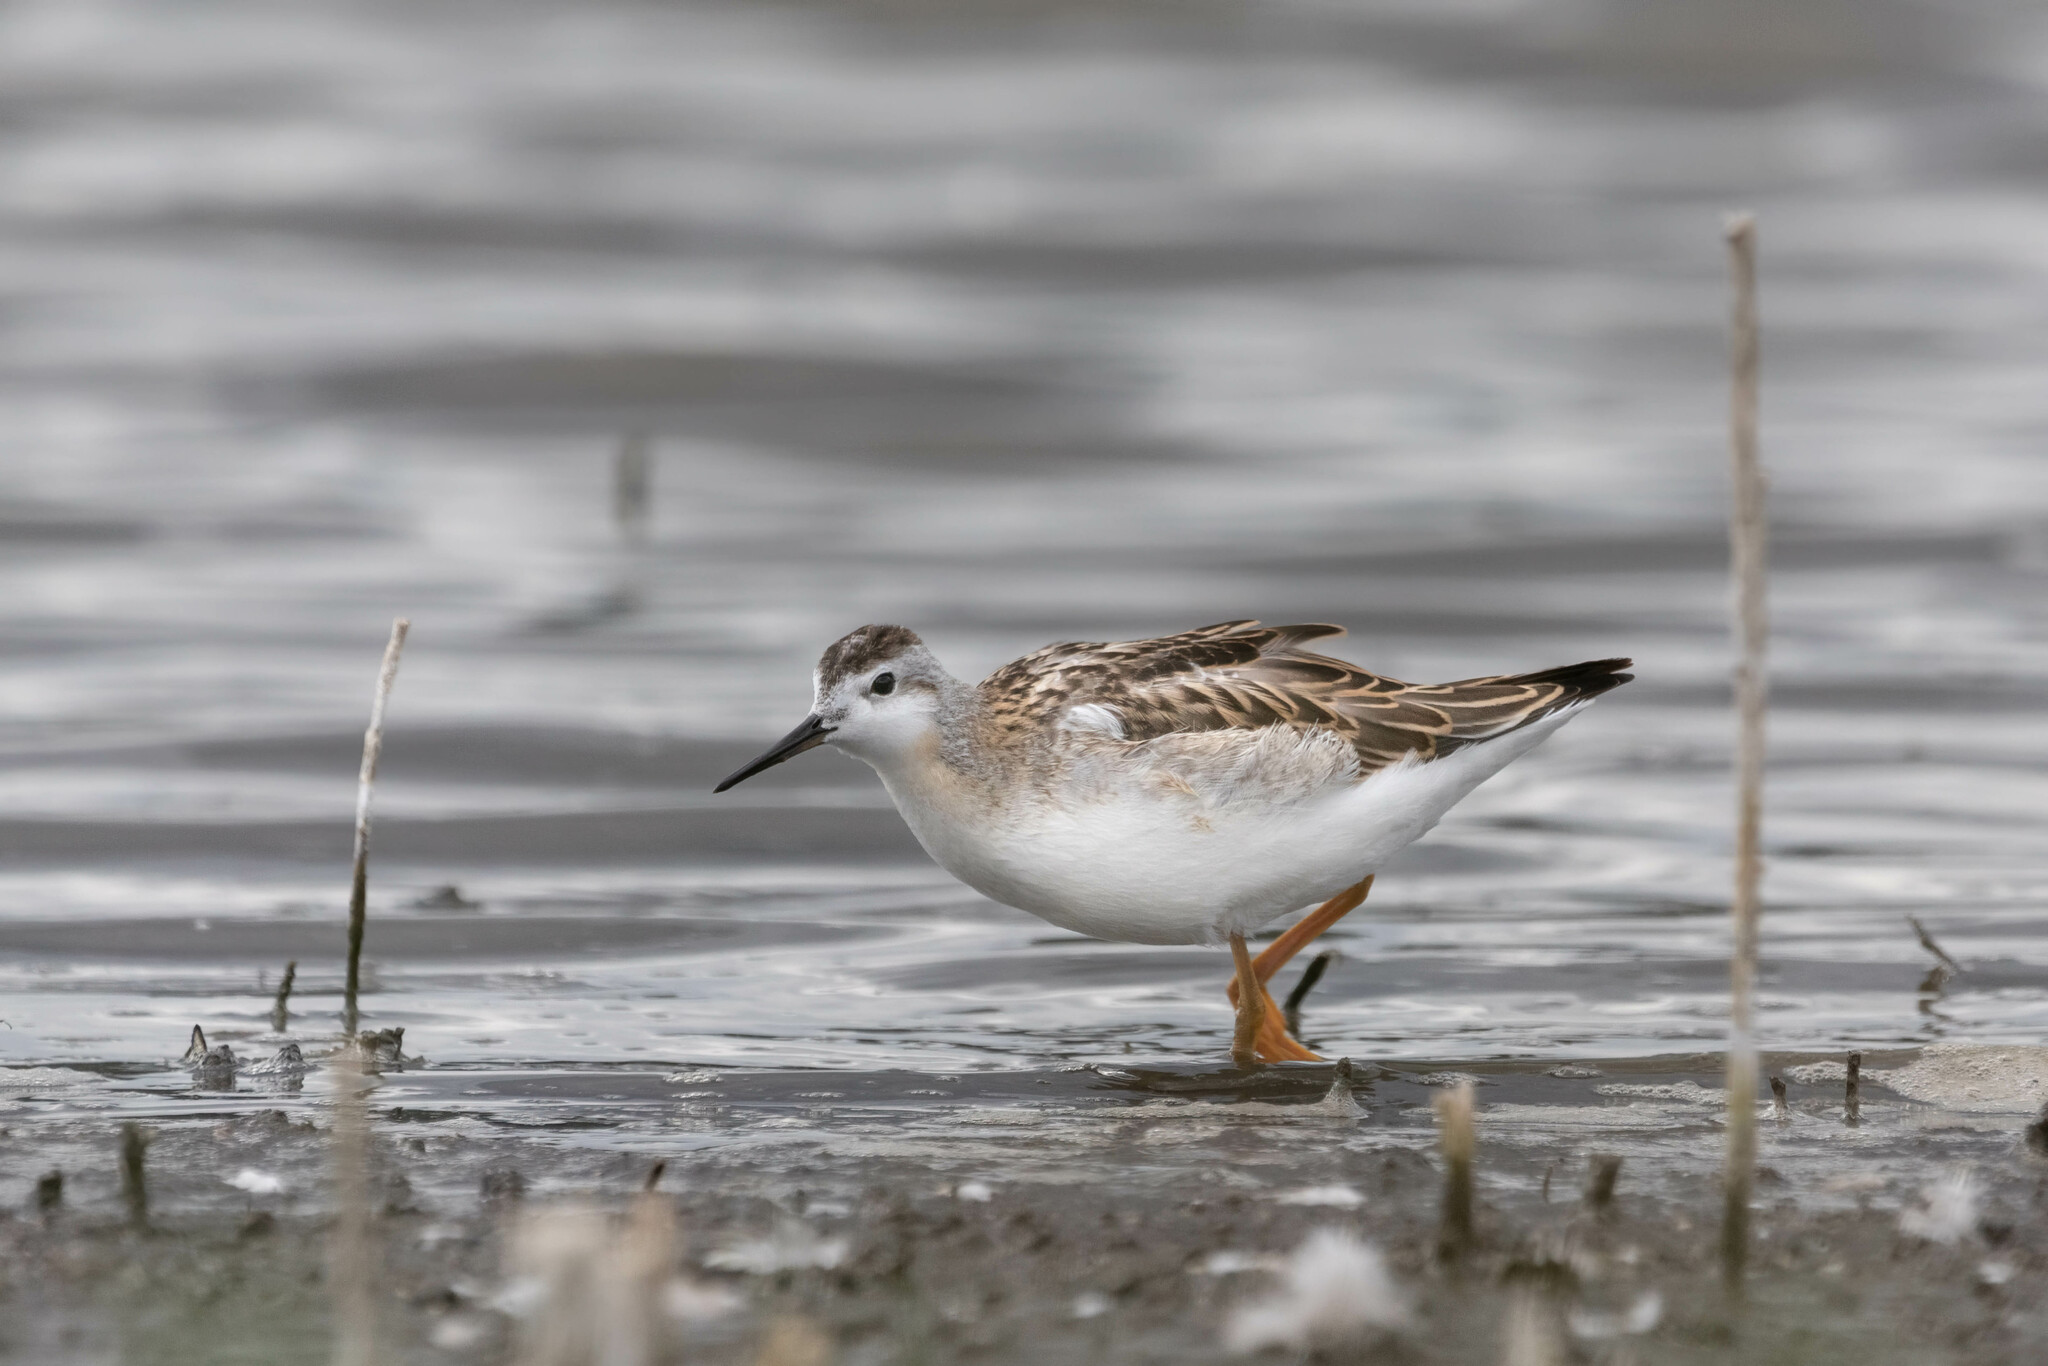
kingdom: Animalia
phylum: Chordata
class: Aves
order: Charadriiformes
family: Scolopacidae
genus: Phalaropus
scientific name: Phalaropus tricolor
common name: Wilson's phalarope
